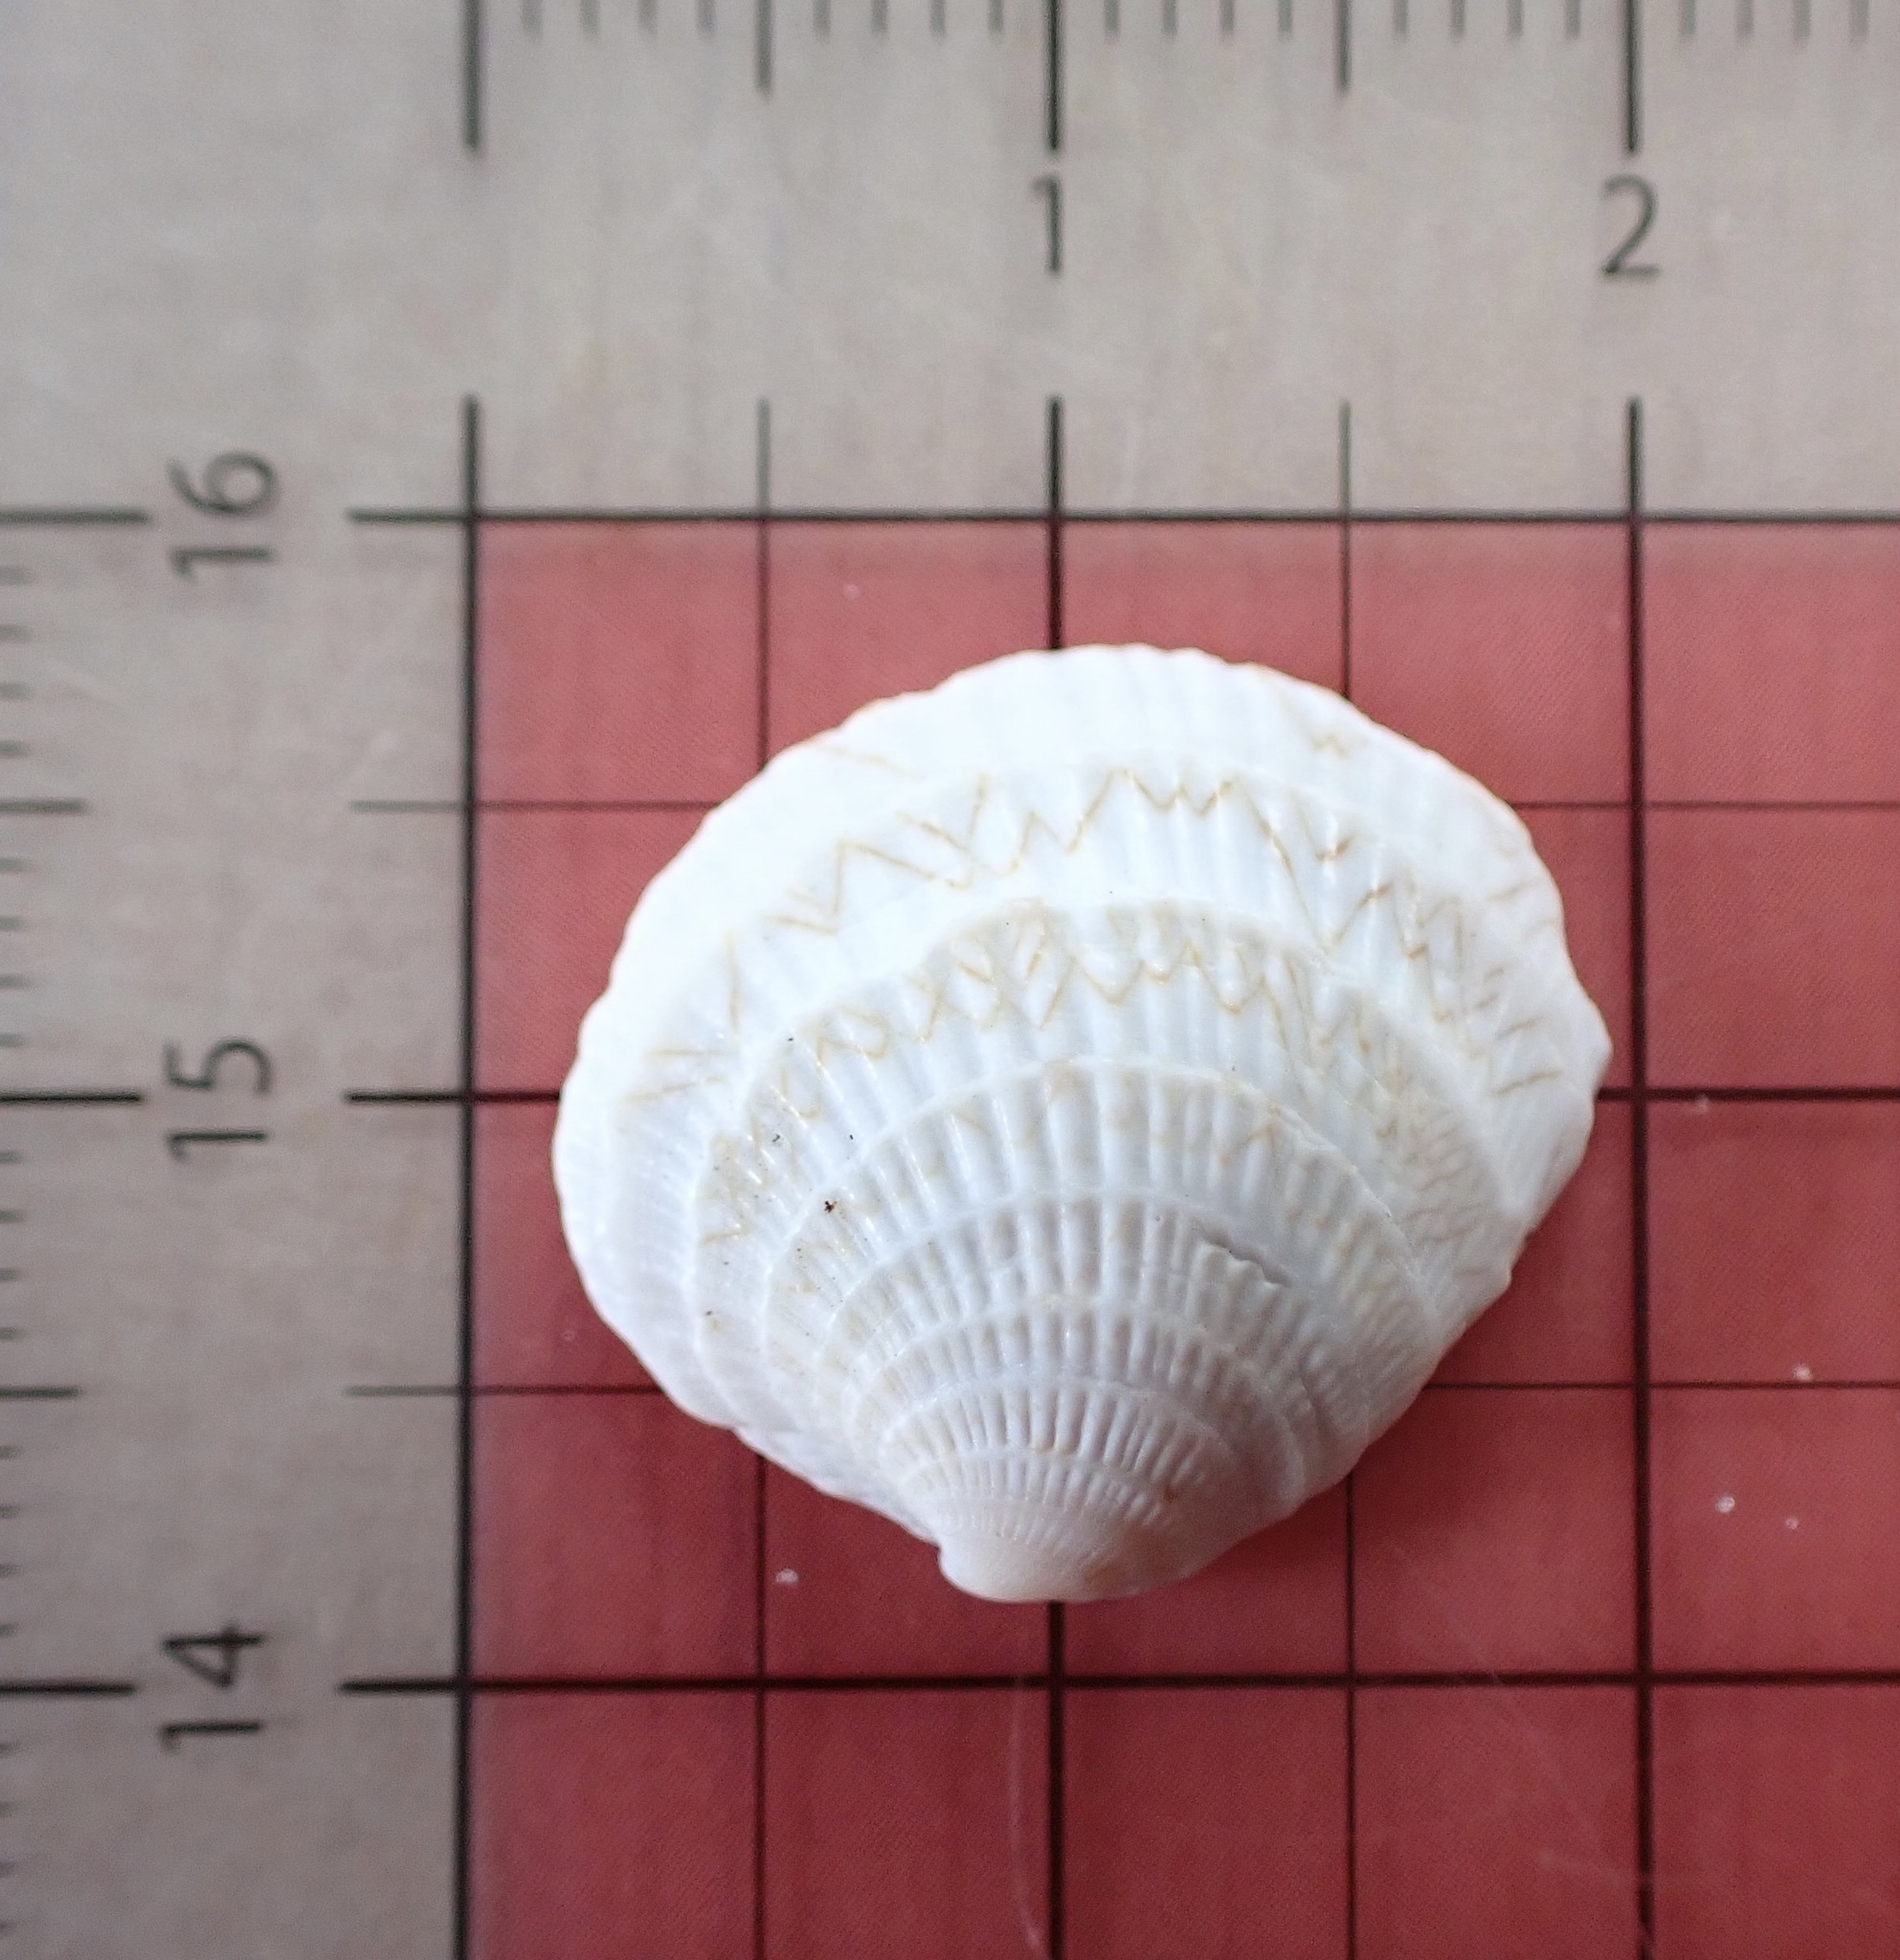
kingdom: Animalia
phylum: Mollusca
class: Bivalvia
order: Venerida
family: Veneridae
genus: Chione
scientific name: Chione elevata
